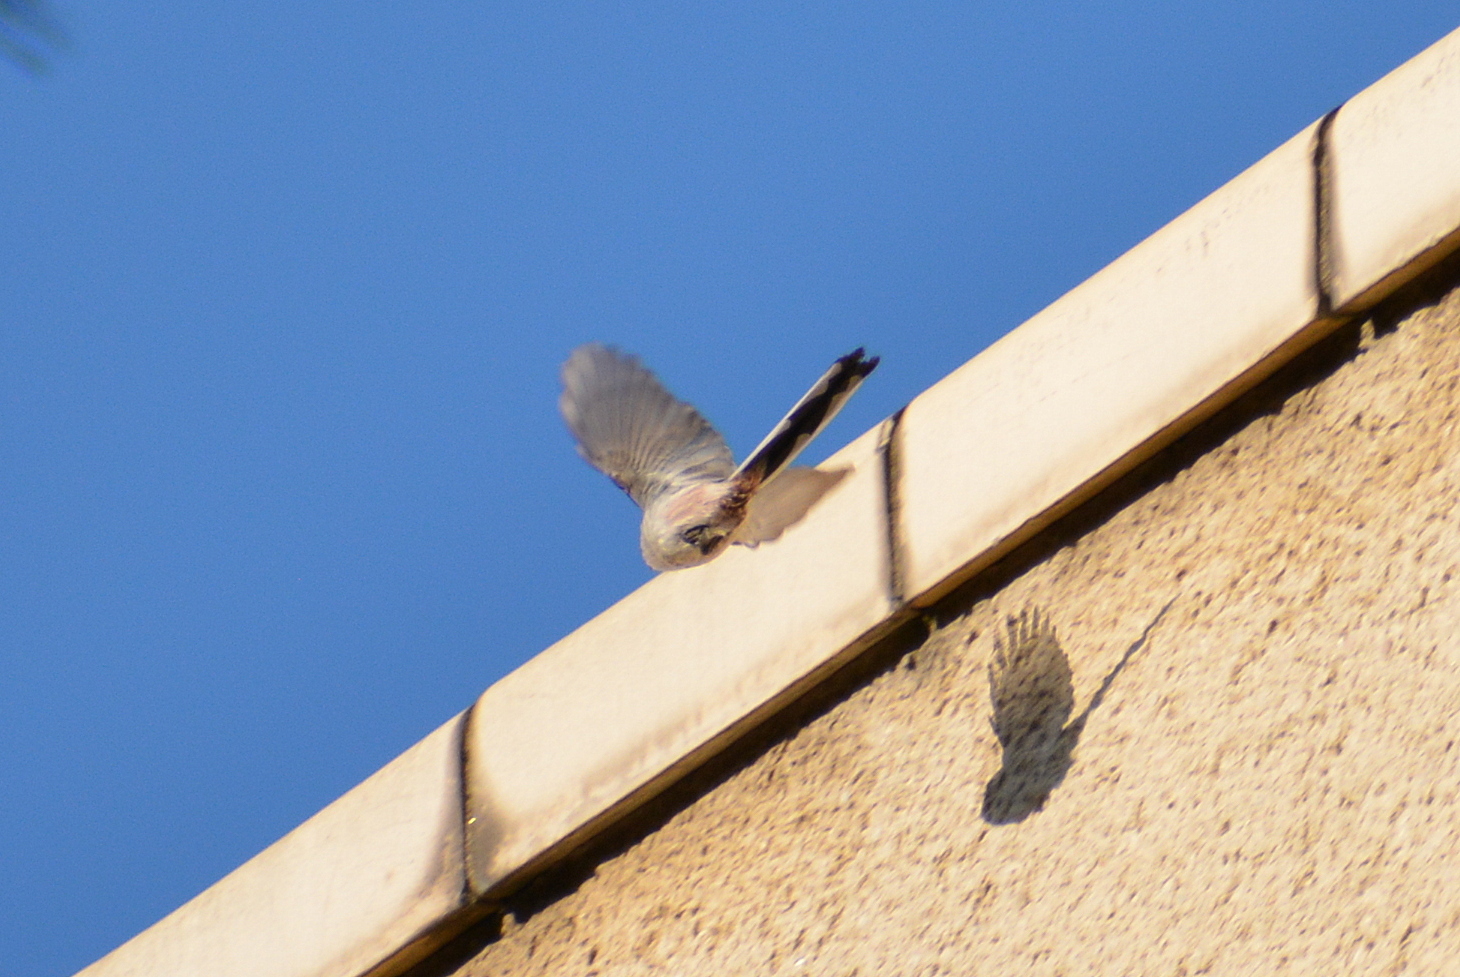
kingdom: Animalia
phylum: Chordata
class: Aves
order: Passeriformes
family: Aegithalidae
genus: Aegithalos
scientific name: Aegithalos caudatus
